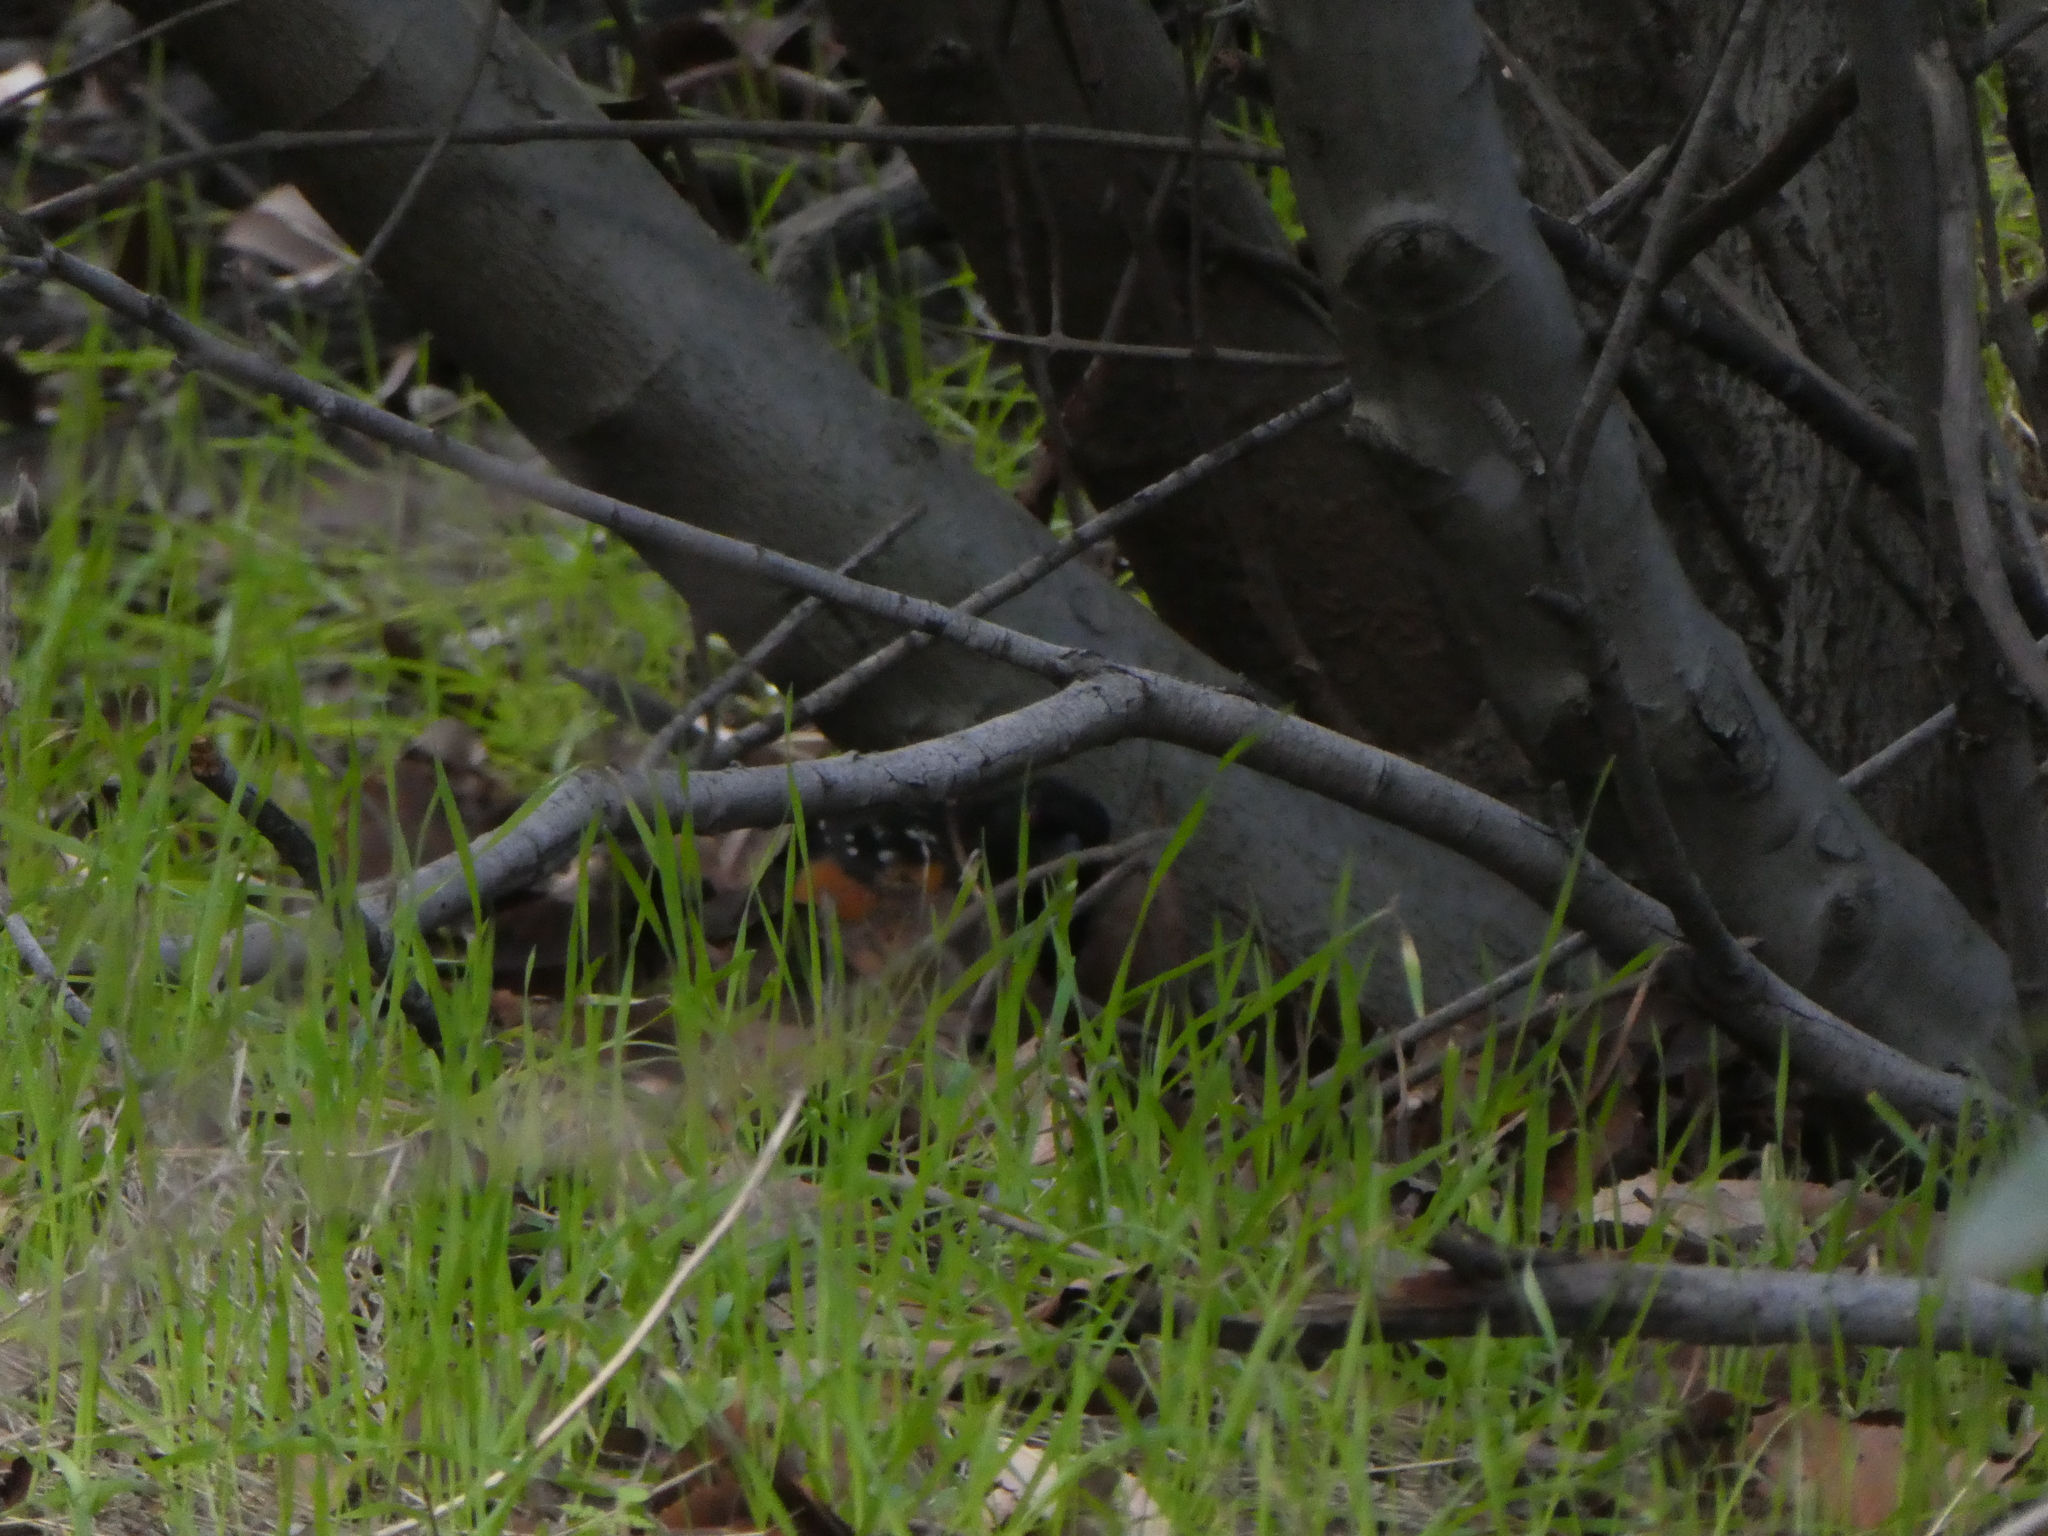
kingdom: Animalia
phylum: Chordata
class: Aves
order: Passeriformes
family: Passerellidae
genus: Pipilo
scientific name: Pipilo maculatus
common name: Spotted towhee
